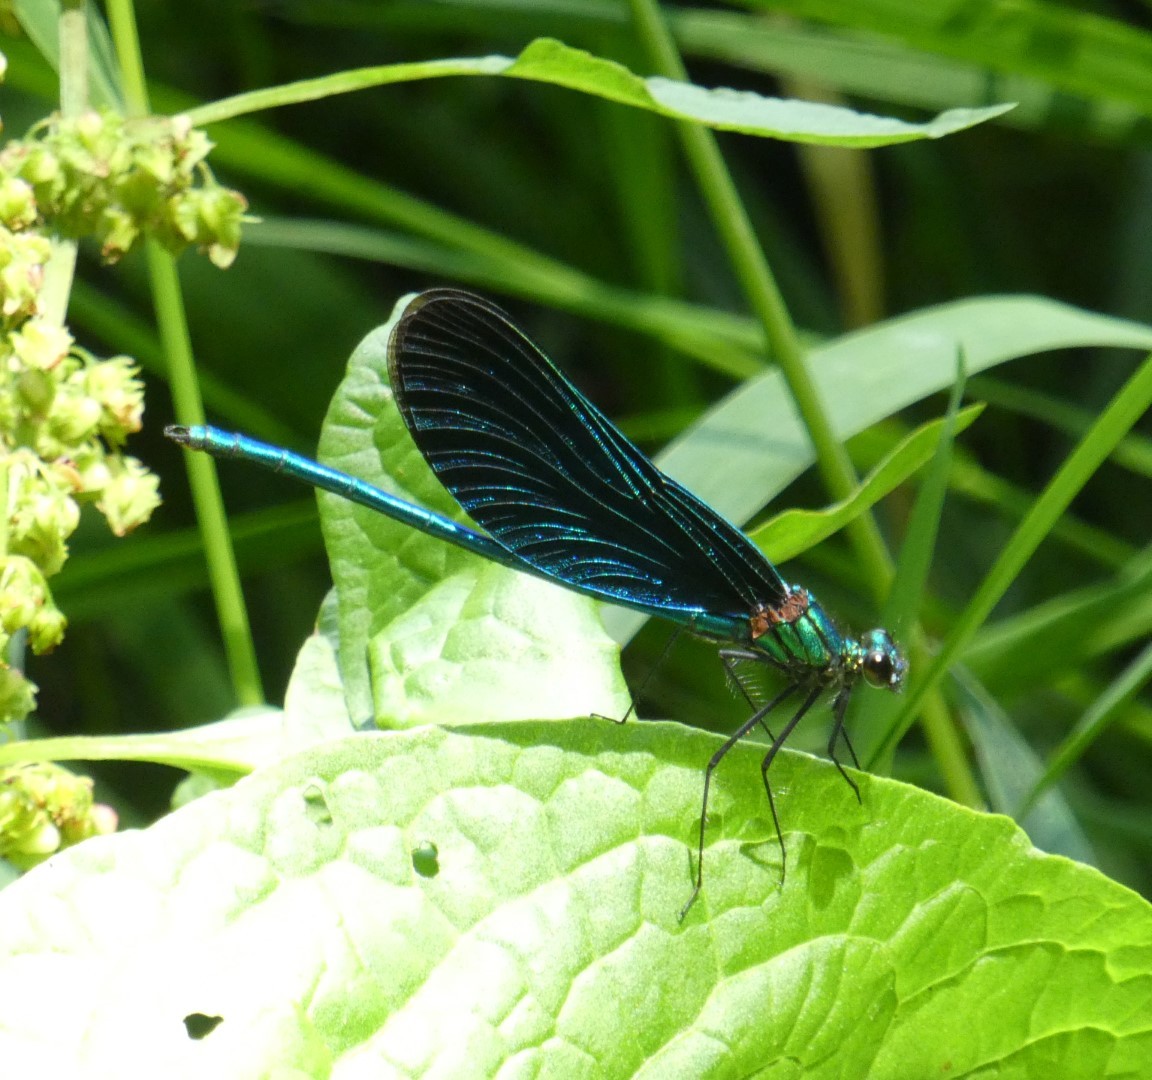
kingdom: Animalia
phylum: Arthropoda
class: Insecta
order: Odonata
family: Calopterygidae
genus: Calopteryx
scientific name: Calopteryx virgo
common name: Beautiful demoiselle
